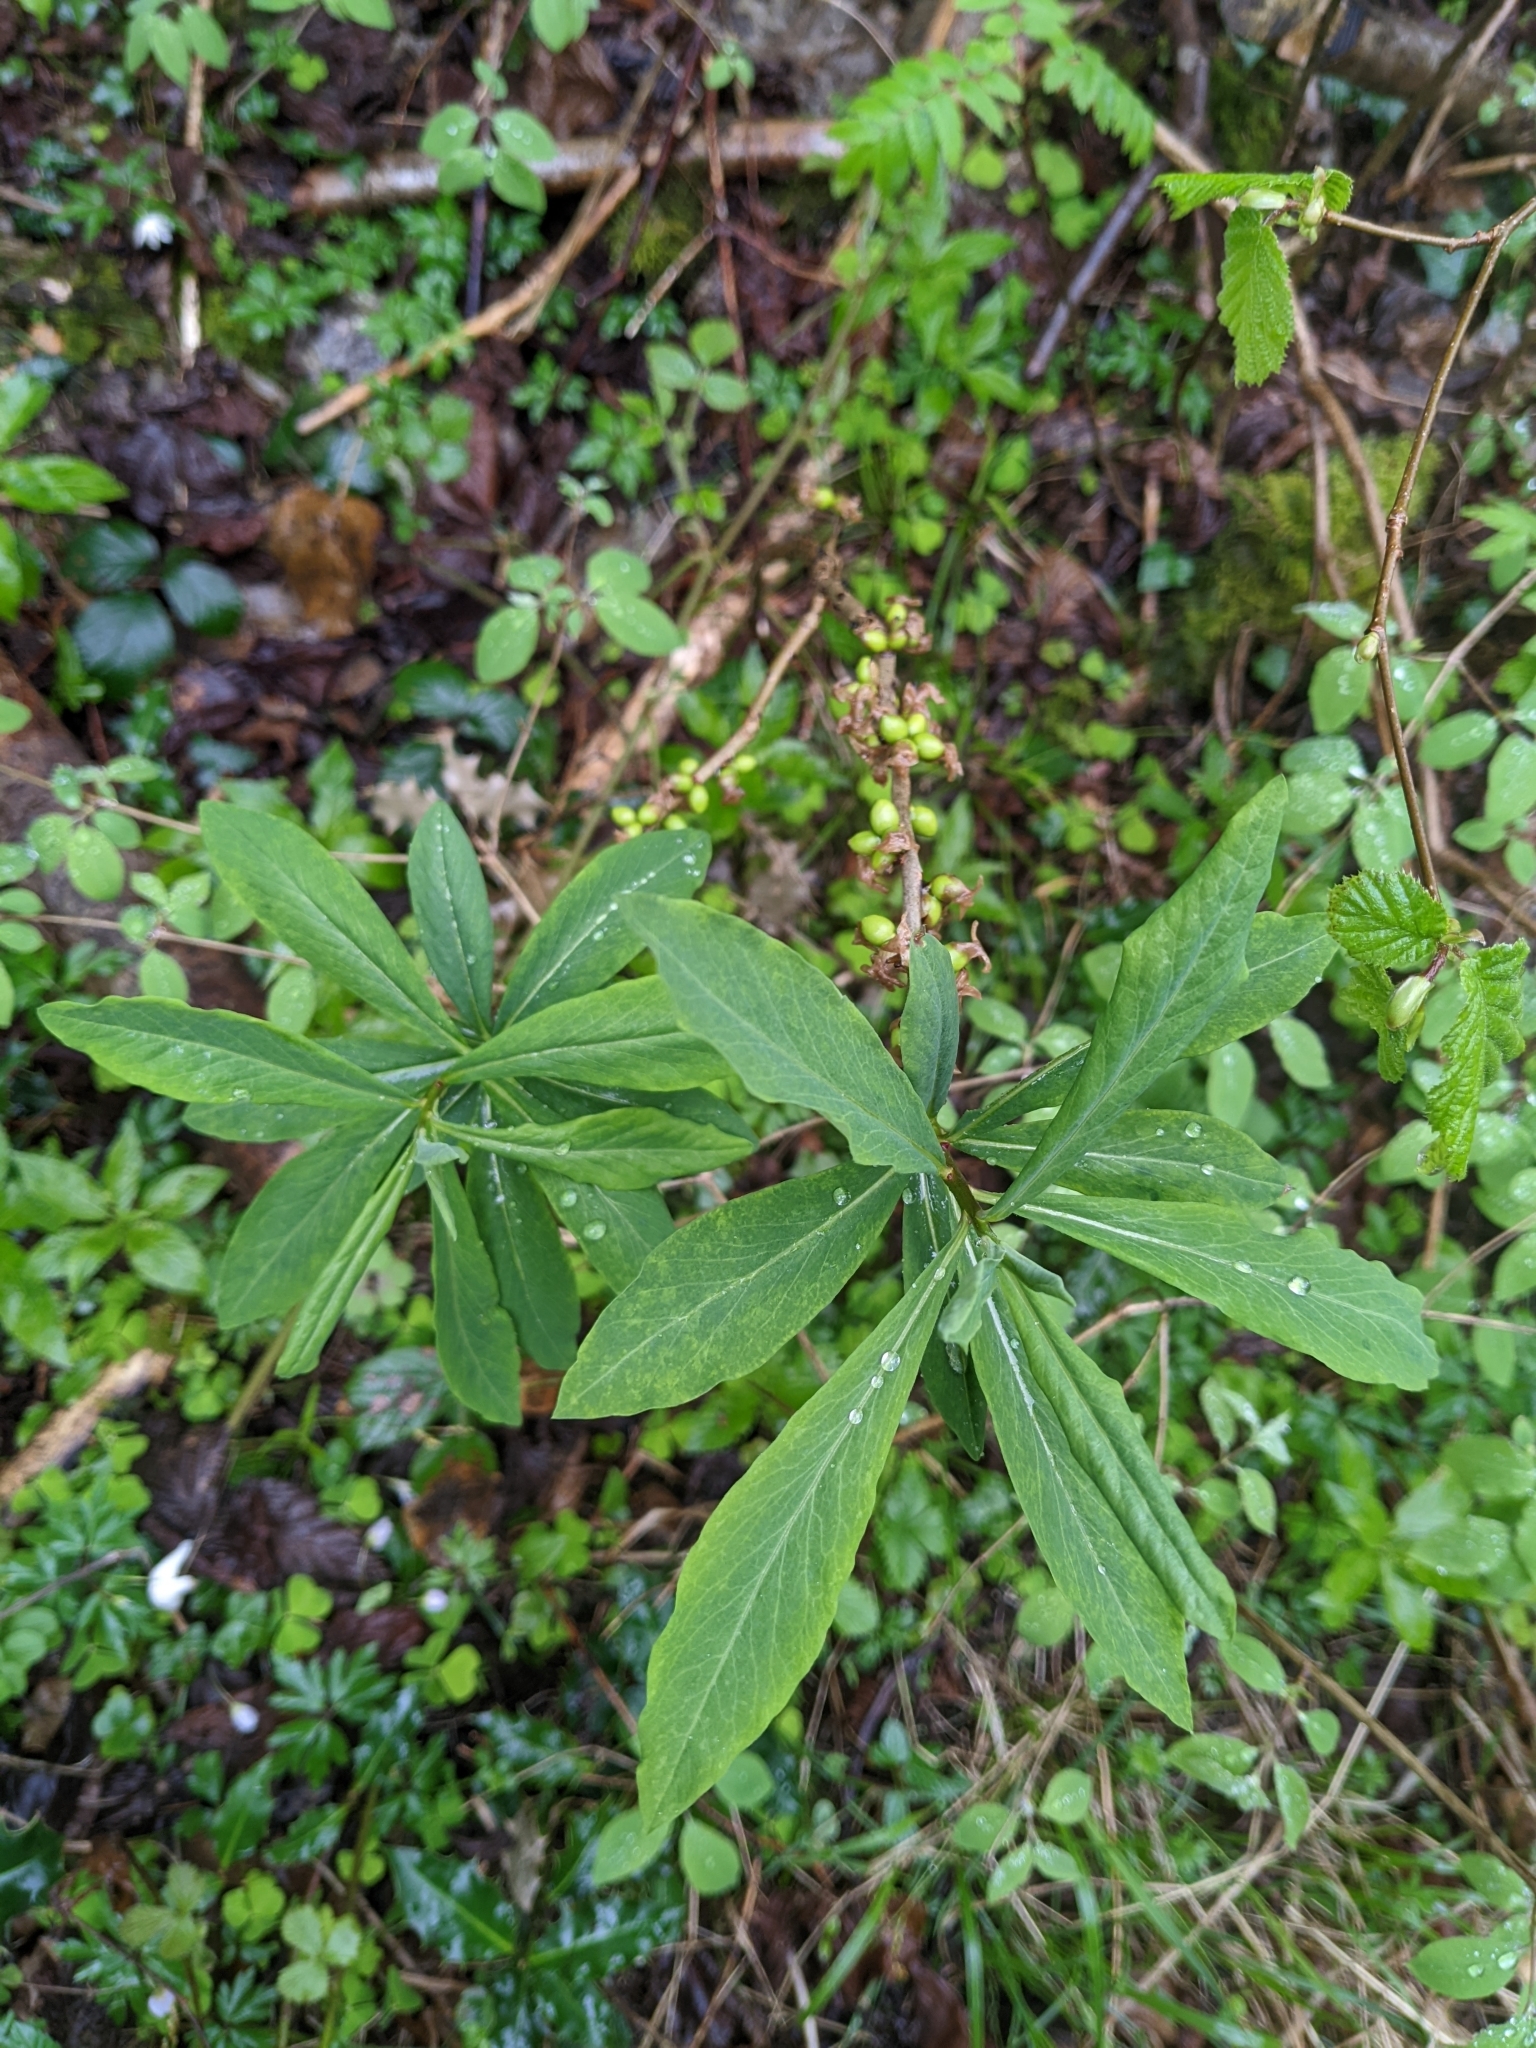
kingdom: Plantae
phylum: Tracheophyta
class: Magnoliopsida
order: Malvales
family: Thymelaeaceae
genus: Daphne
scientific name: Daphne mezereum
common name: Mezereon
